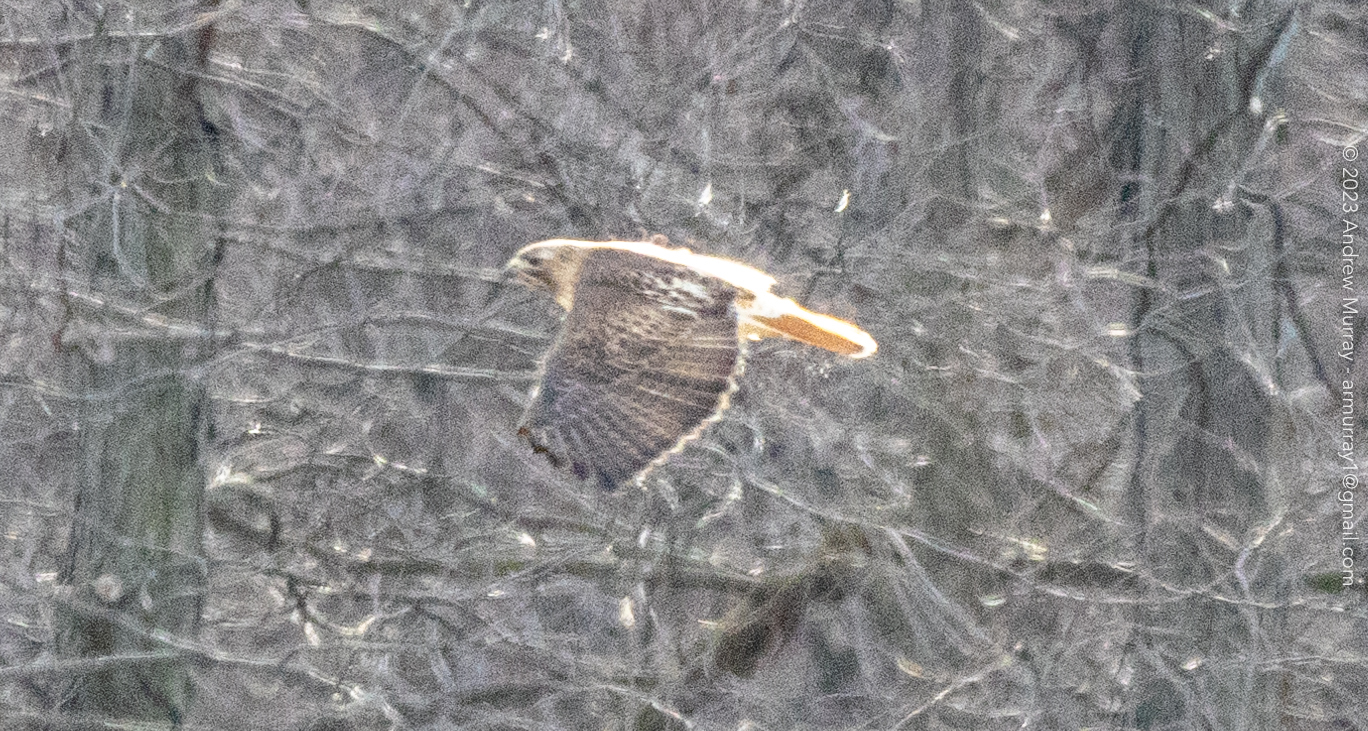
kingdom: Animalia
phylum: Chordata
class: Aves
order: Accipitriformes
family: Accipitridae
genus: Buteo
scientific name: Buteo jamaicensis
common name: Red-tailed hawk
